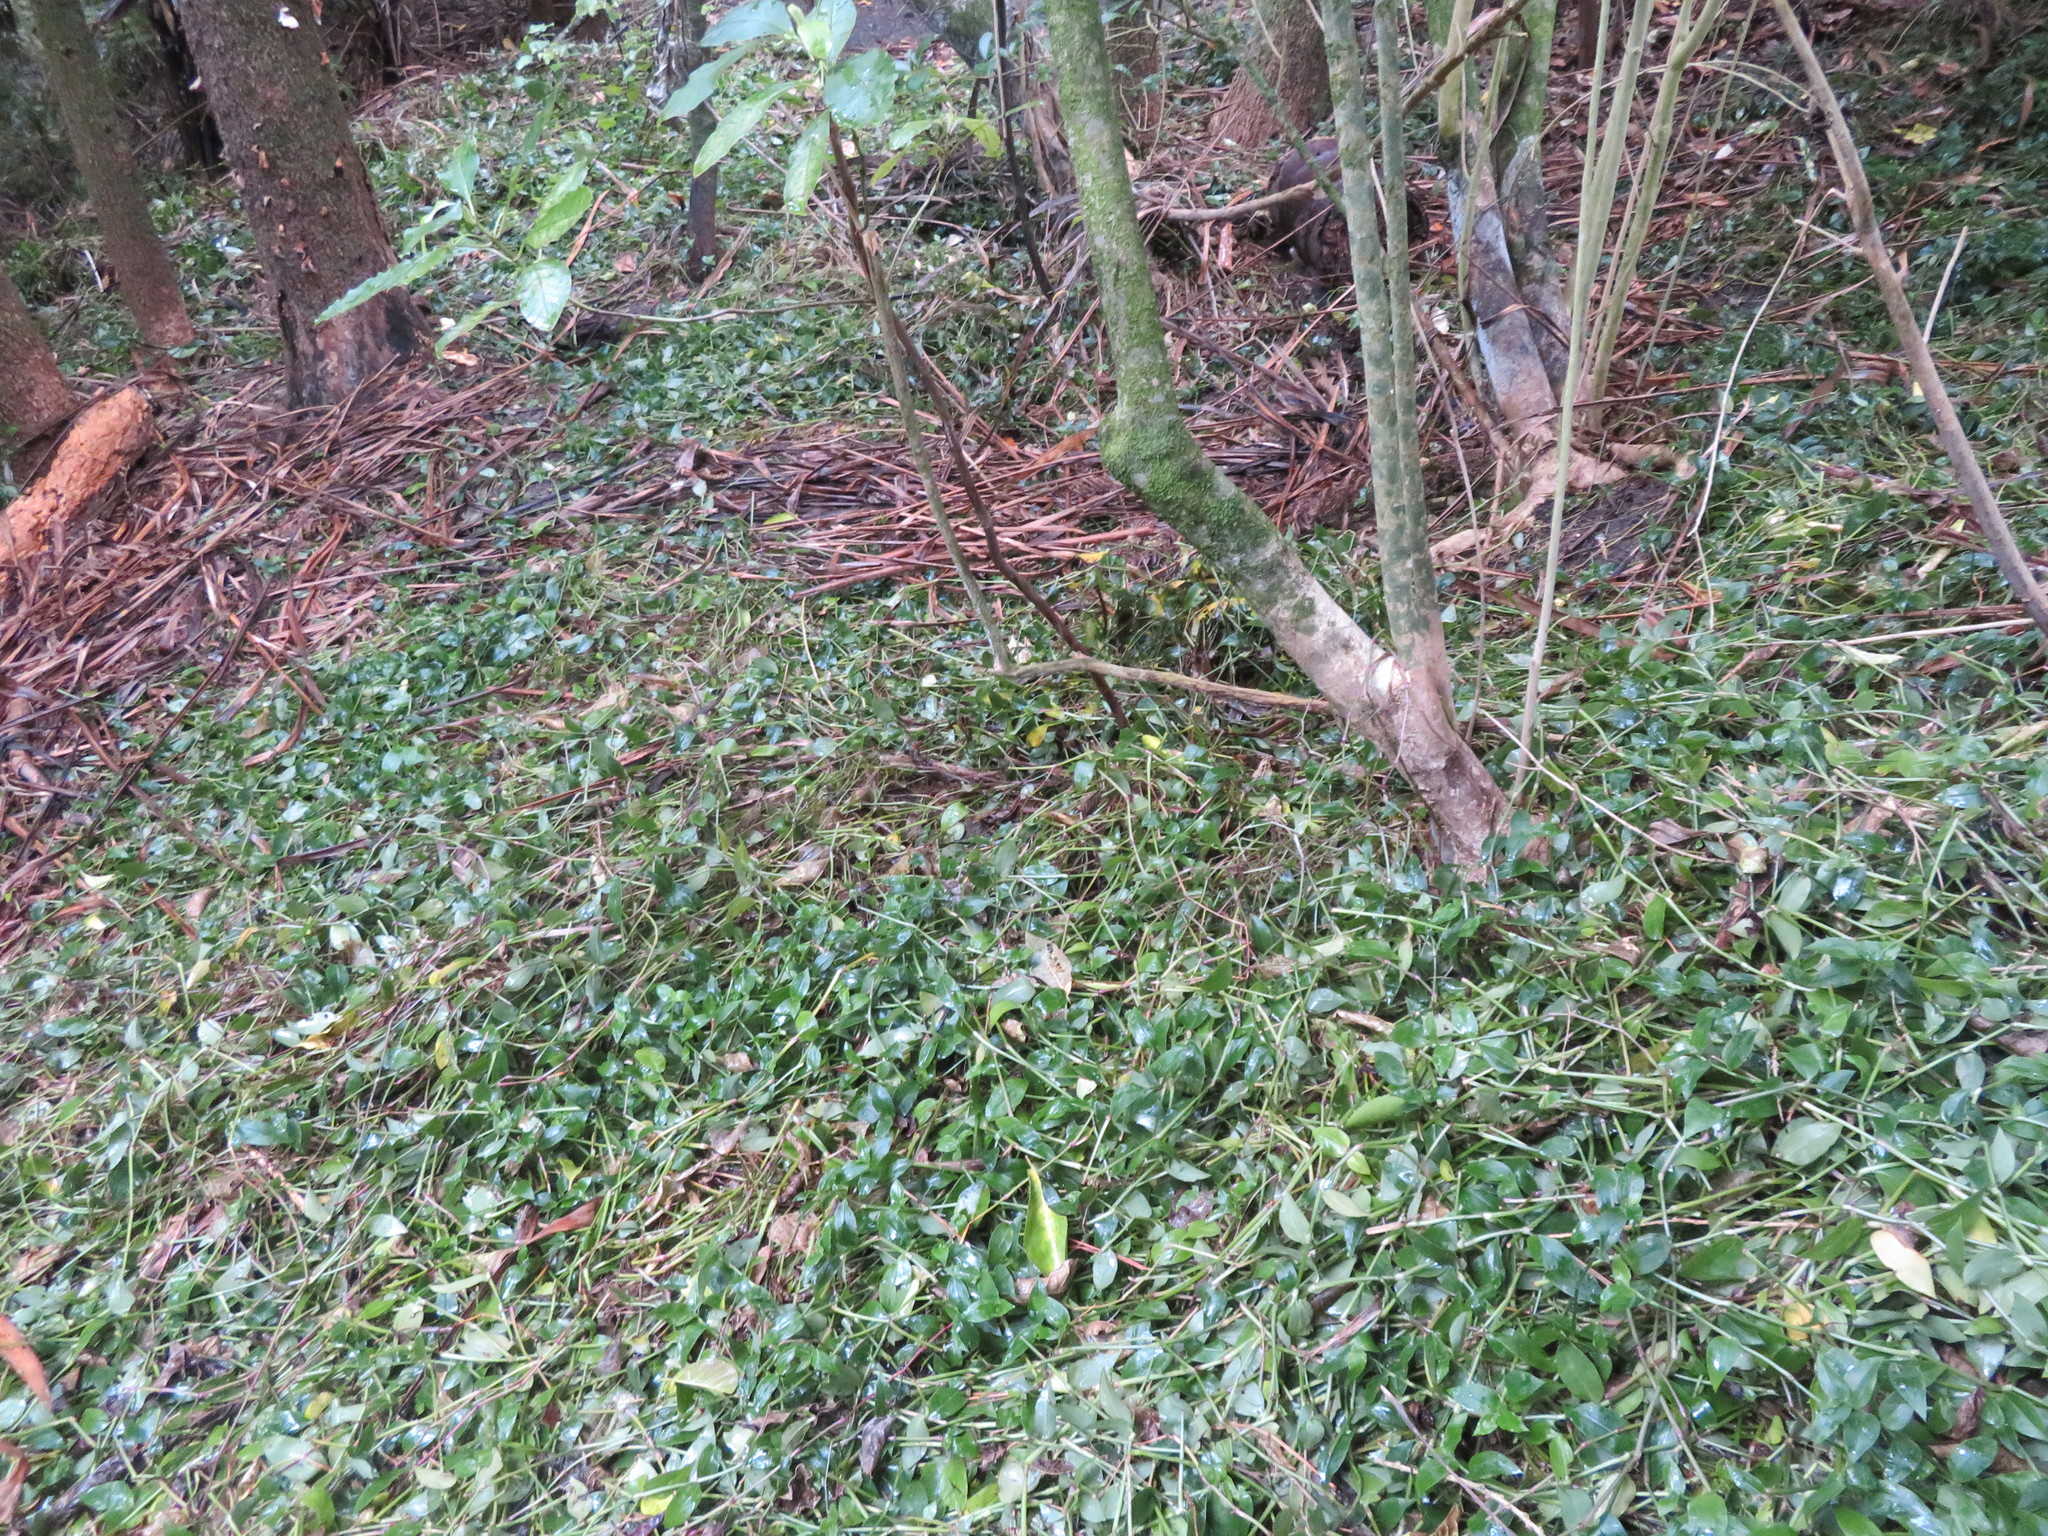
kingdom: Plantae
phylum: Tracheophyta
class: Liliopsida
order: Commelinales
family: Commelinaceae
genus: Tradescantia
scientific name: Tradescantia fluminensis
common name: Wandering-jew
